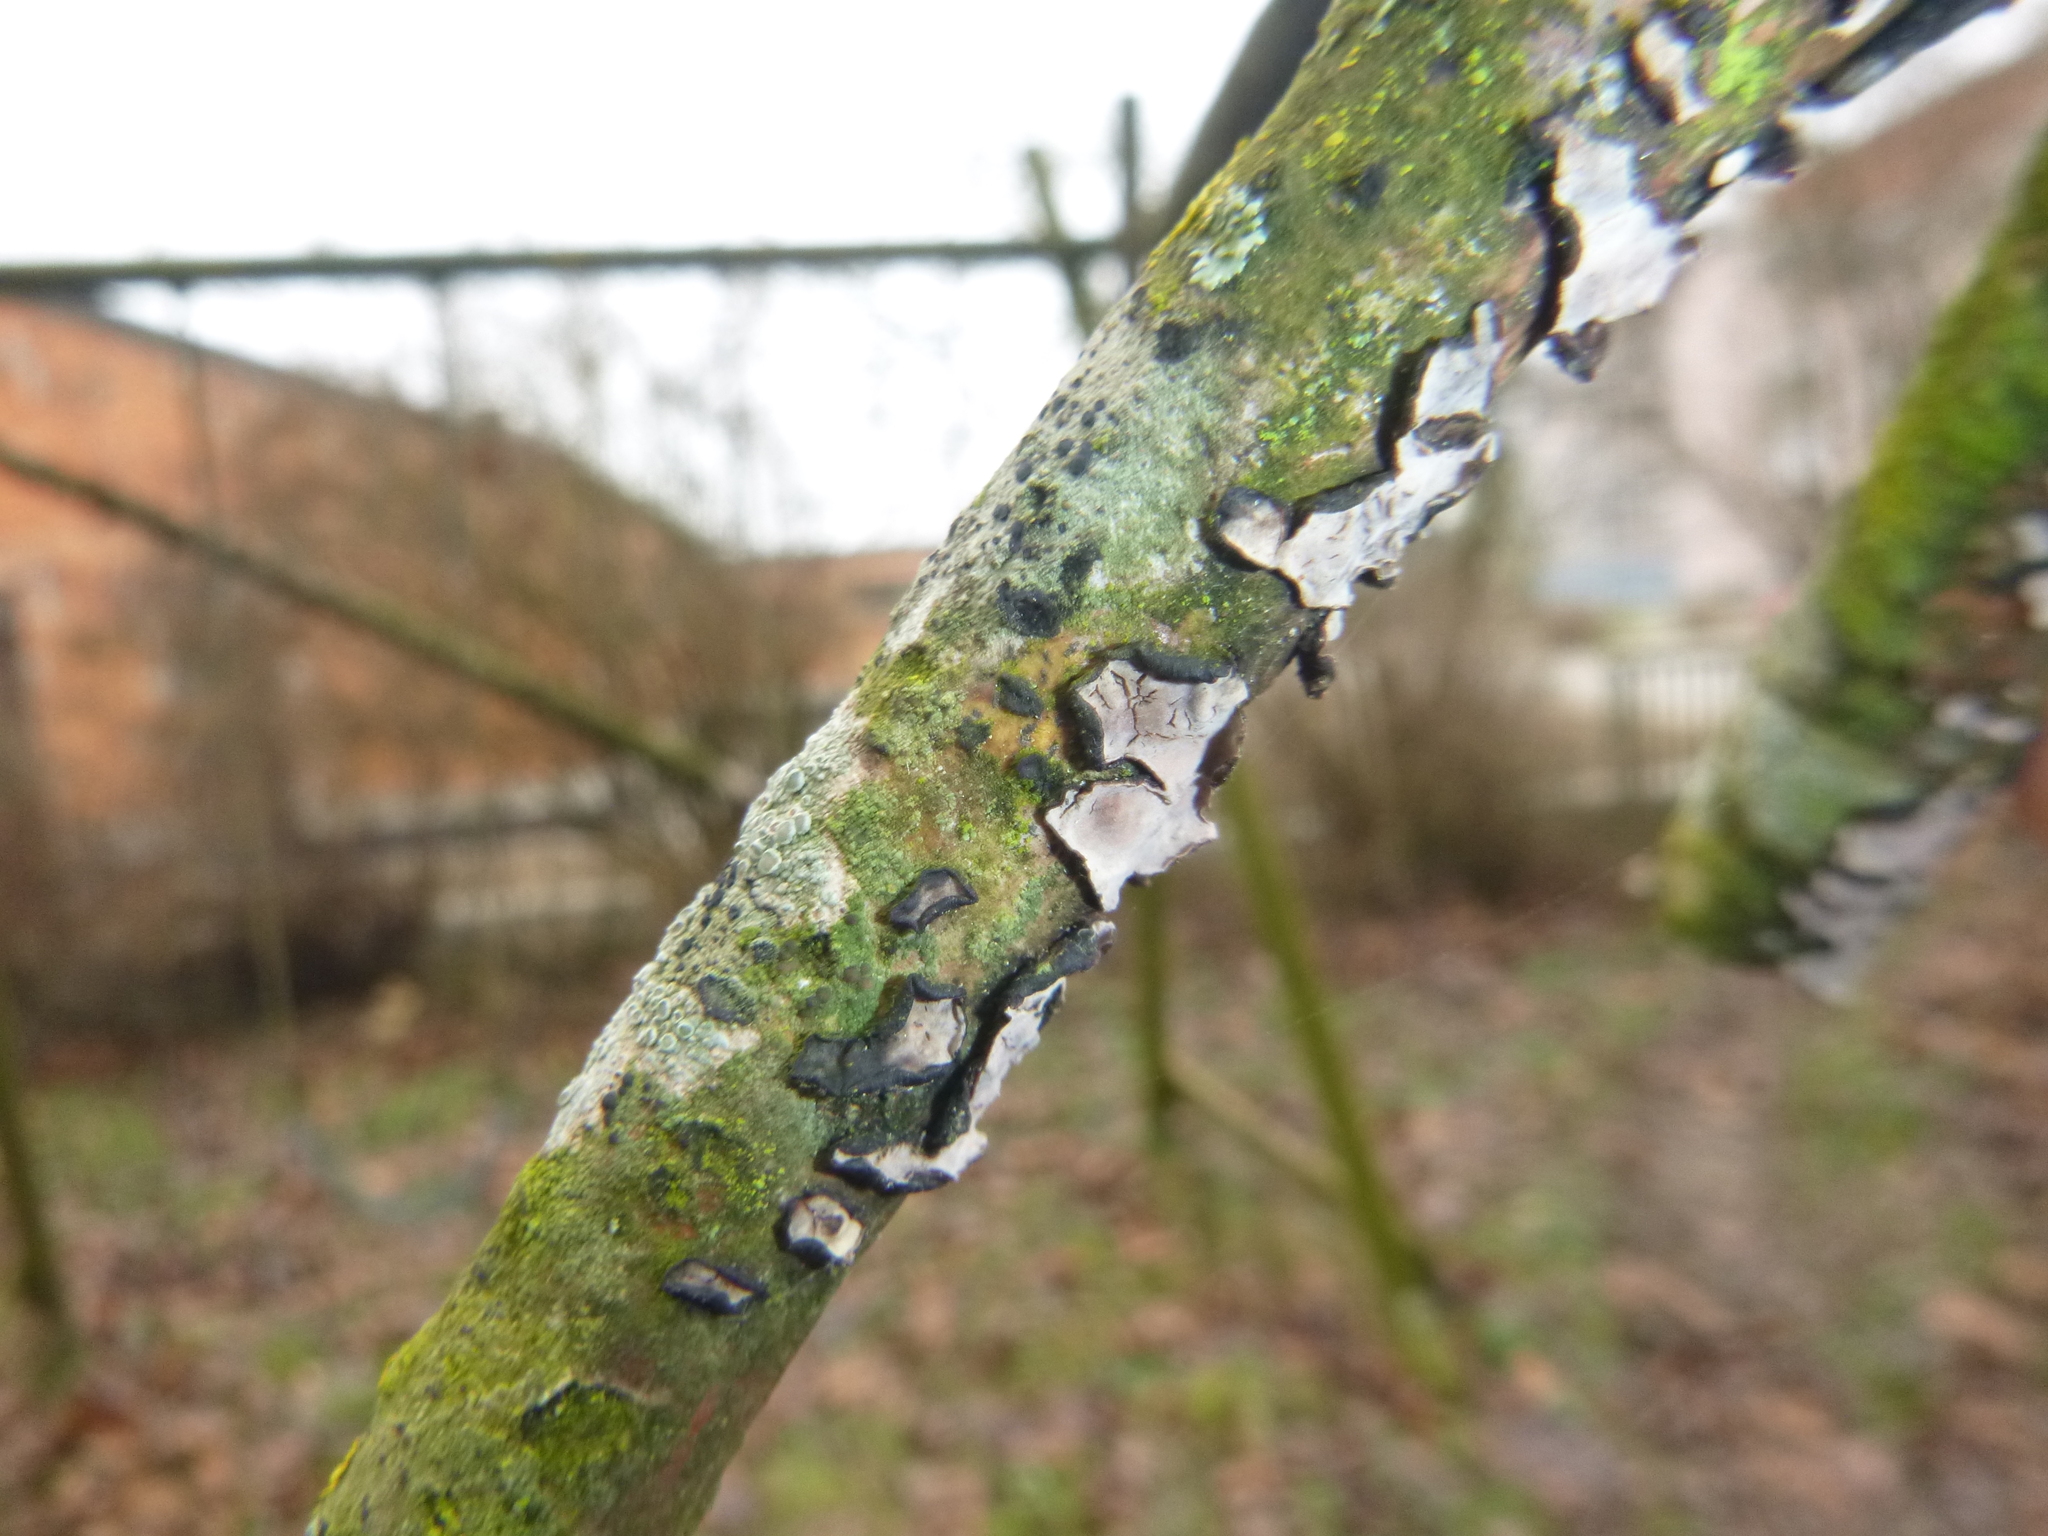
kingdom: Fungi
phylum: Basidiomycota
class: Agaricomycetes
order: Russulales
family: Peniophoraceae
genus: Peniophora
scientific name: Peniophora quercina
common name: Oak crust
